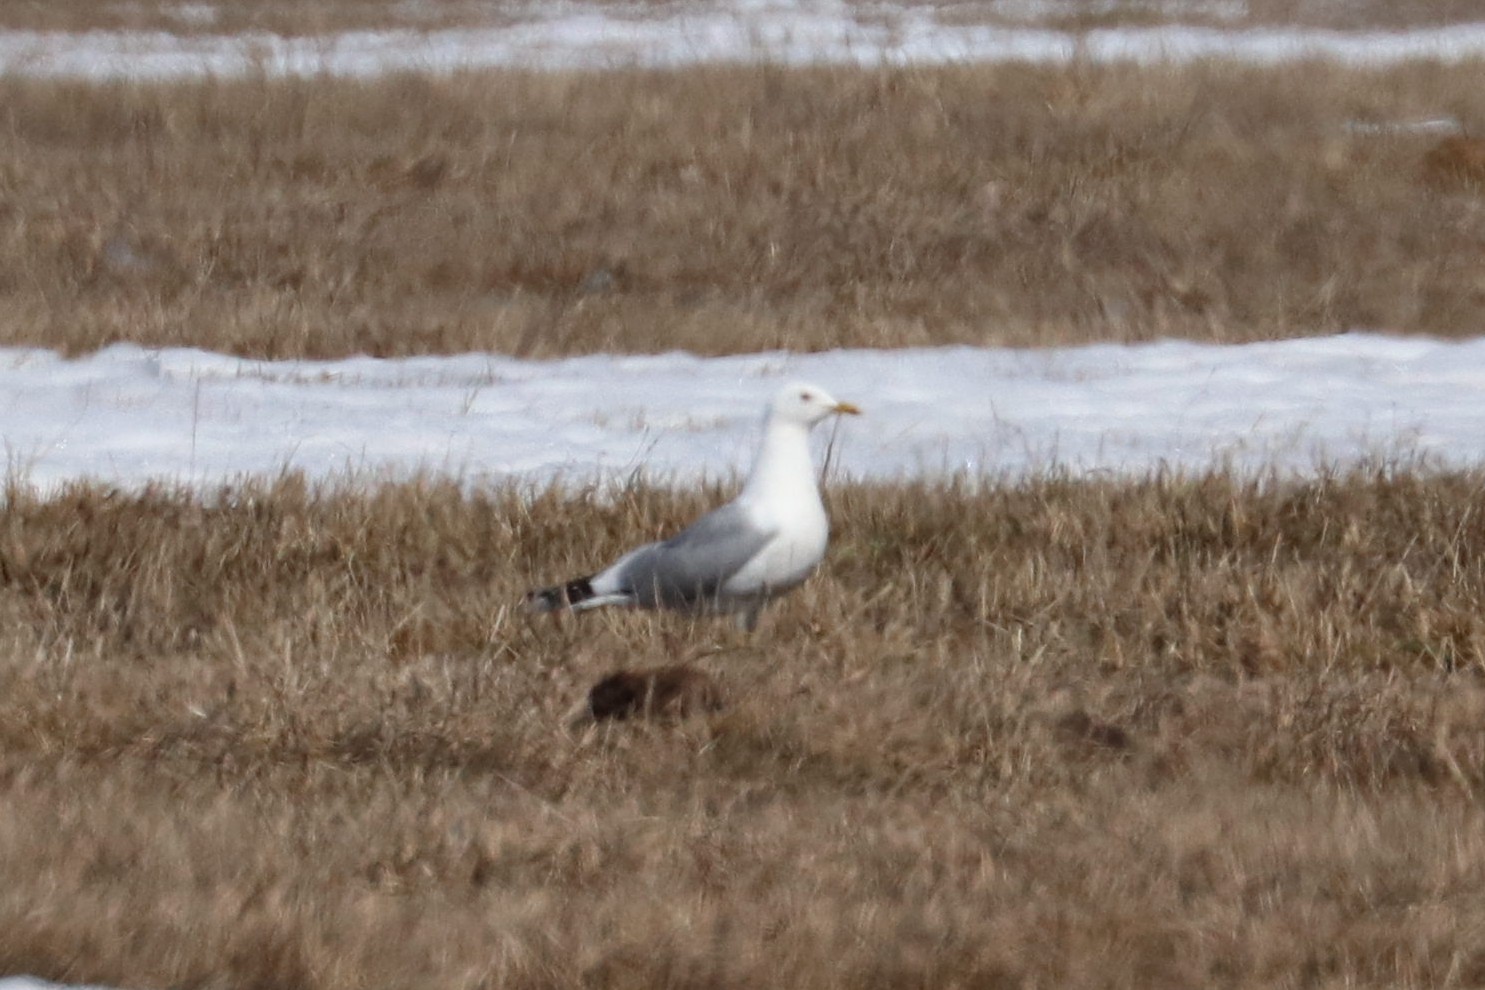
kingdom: Animalia
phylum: Chordata
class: Aves
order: Charadriiformes
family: Laridae
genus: Larus
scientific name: Larus canus
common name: Mew gull
